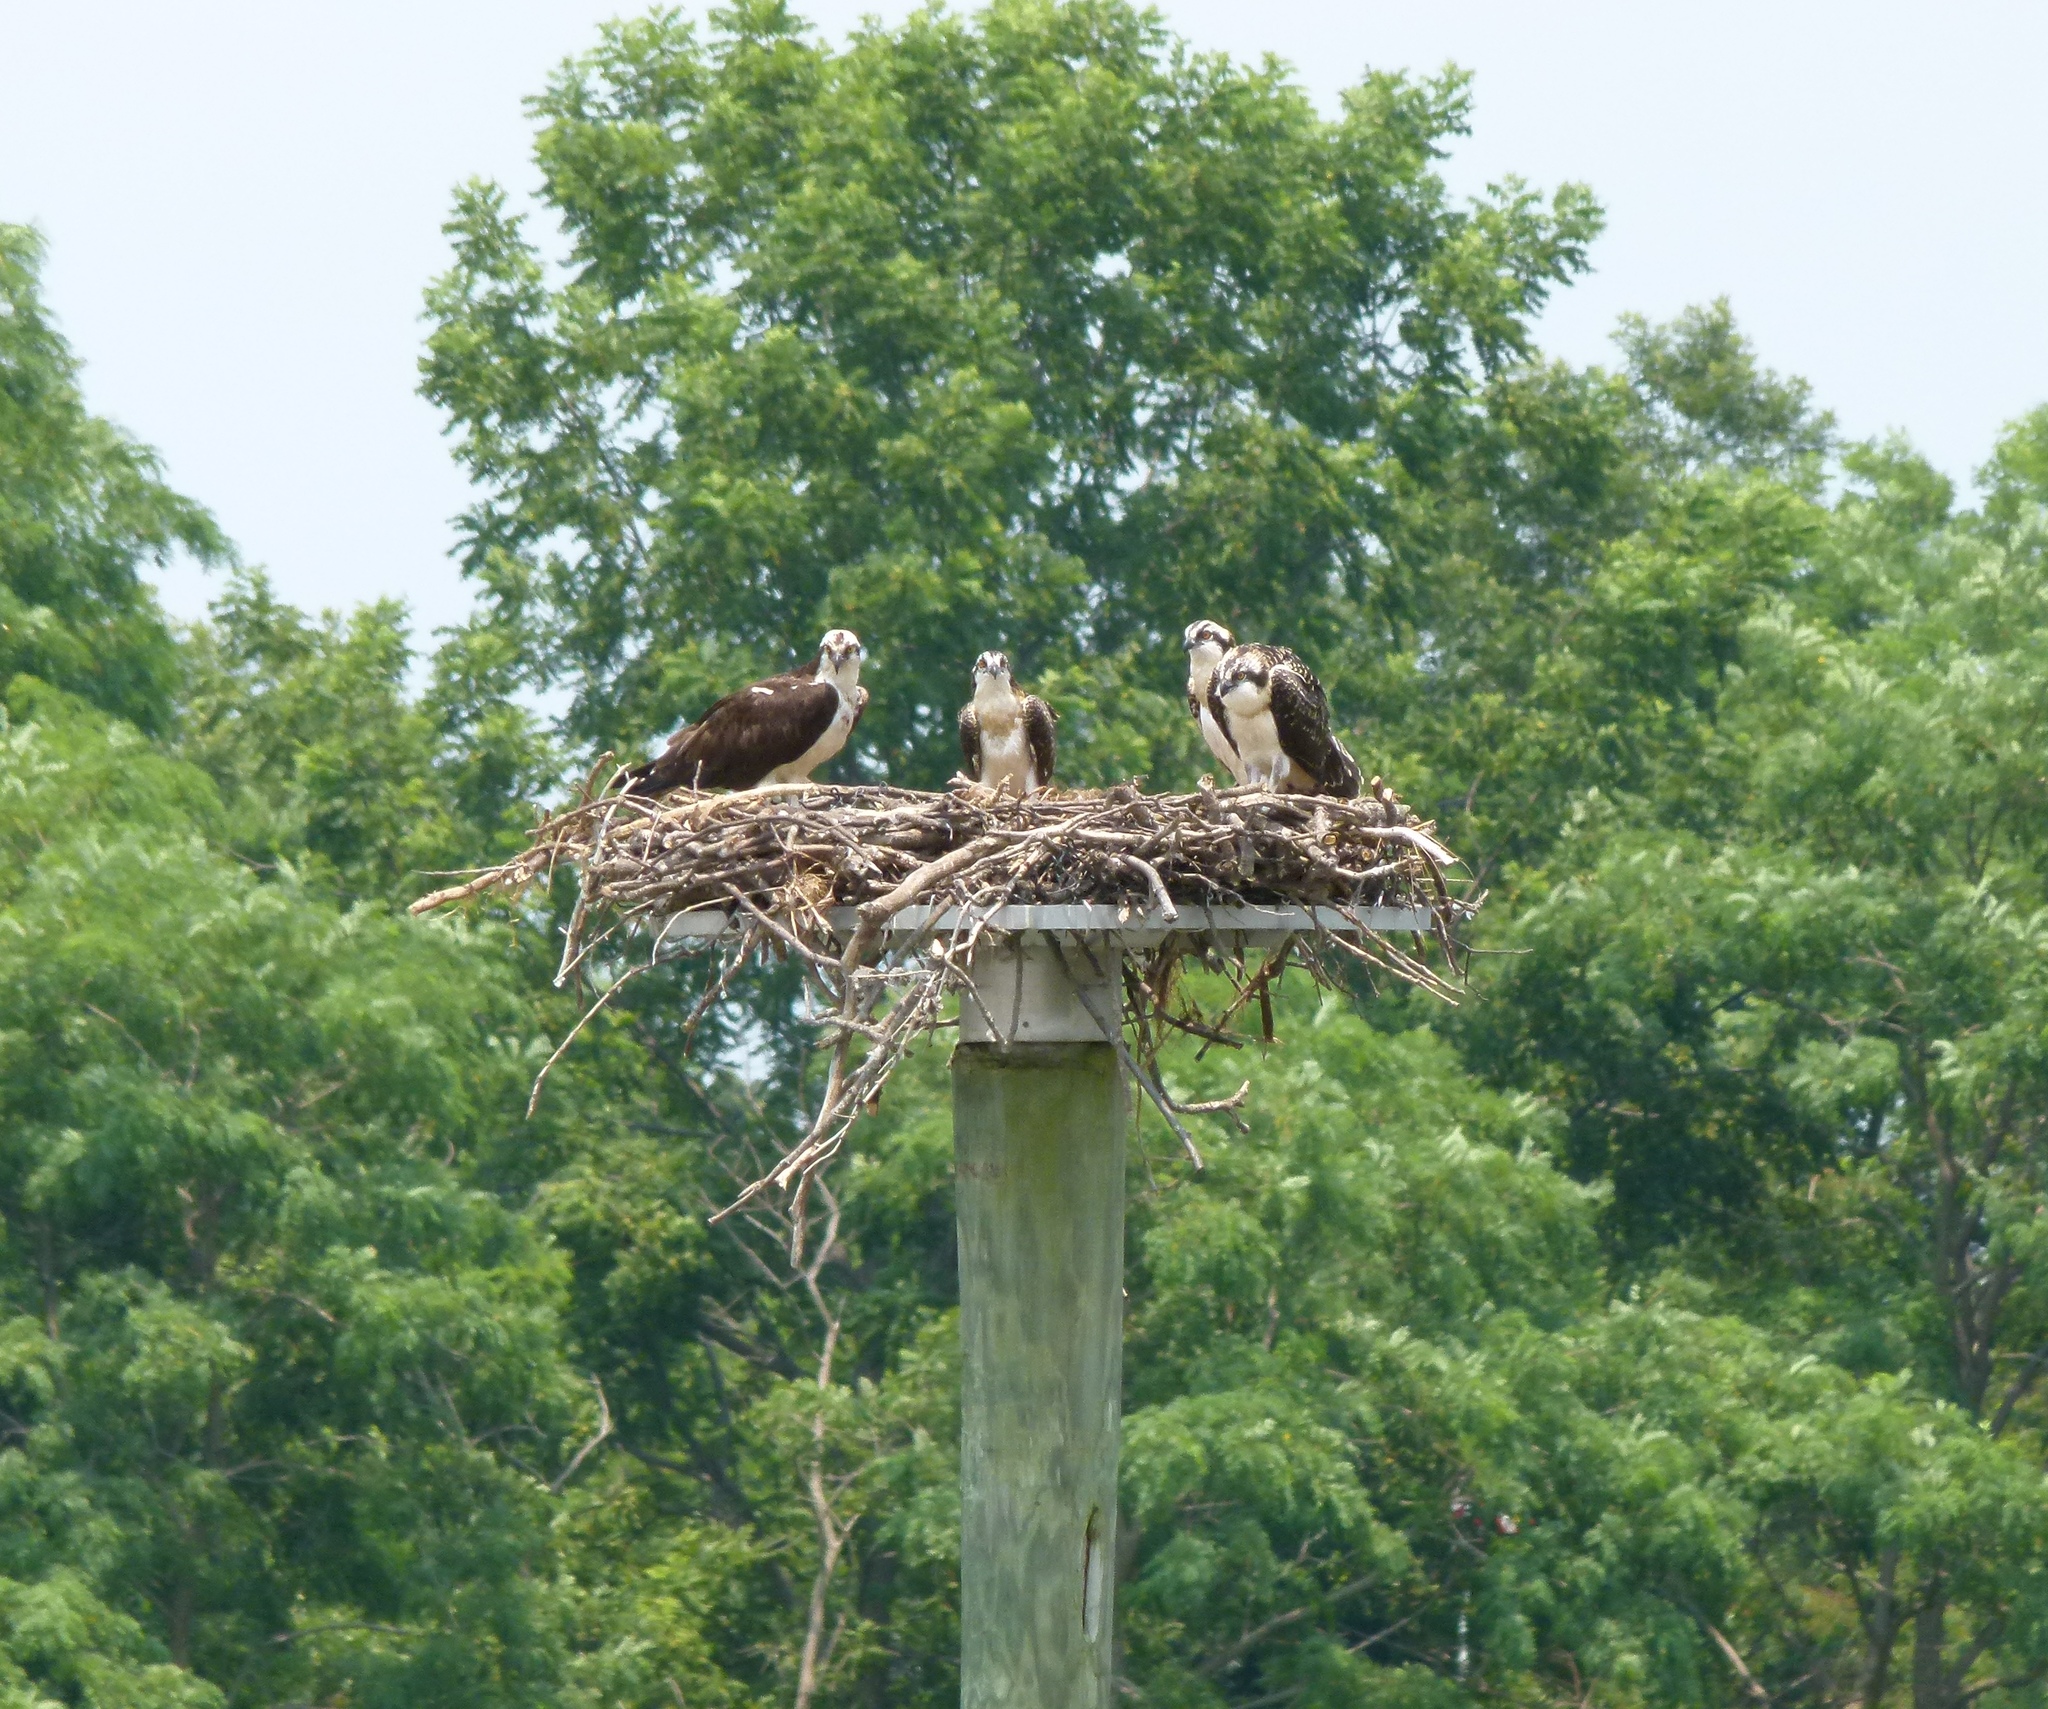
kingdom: Animalia
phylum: Chordata
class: Aves
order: Accipitriformes
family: Pandionidae
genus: Pandion
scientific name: Pandion haliaetus
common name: Osprey
